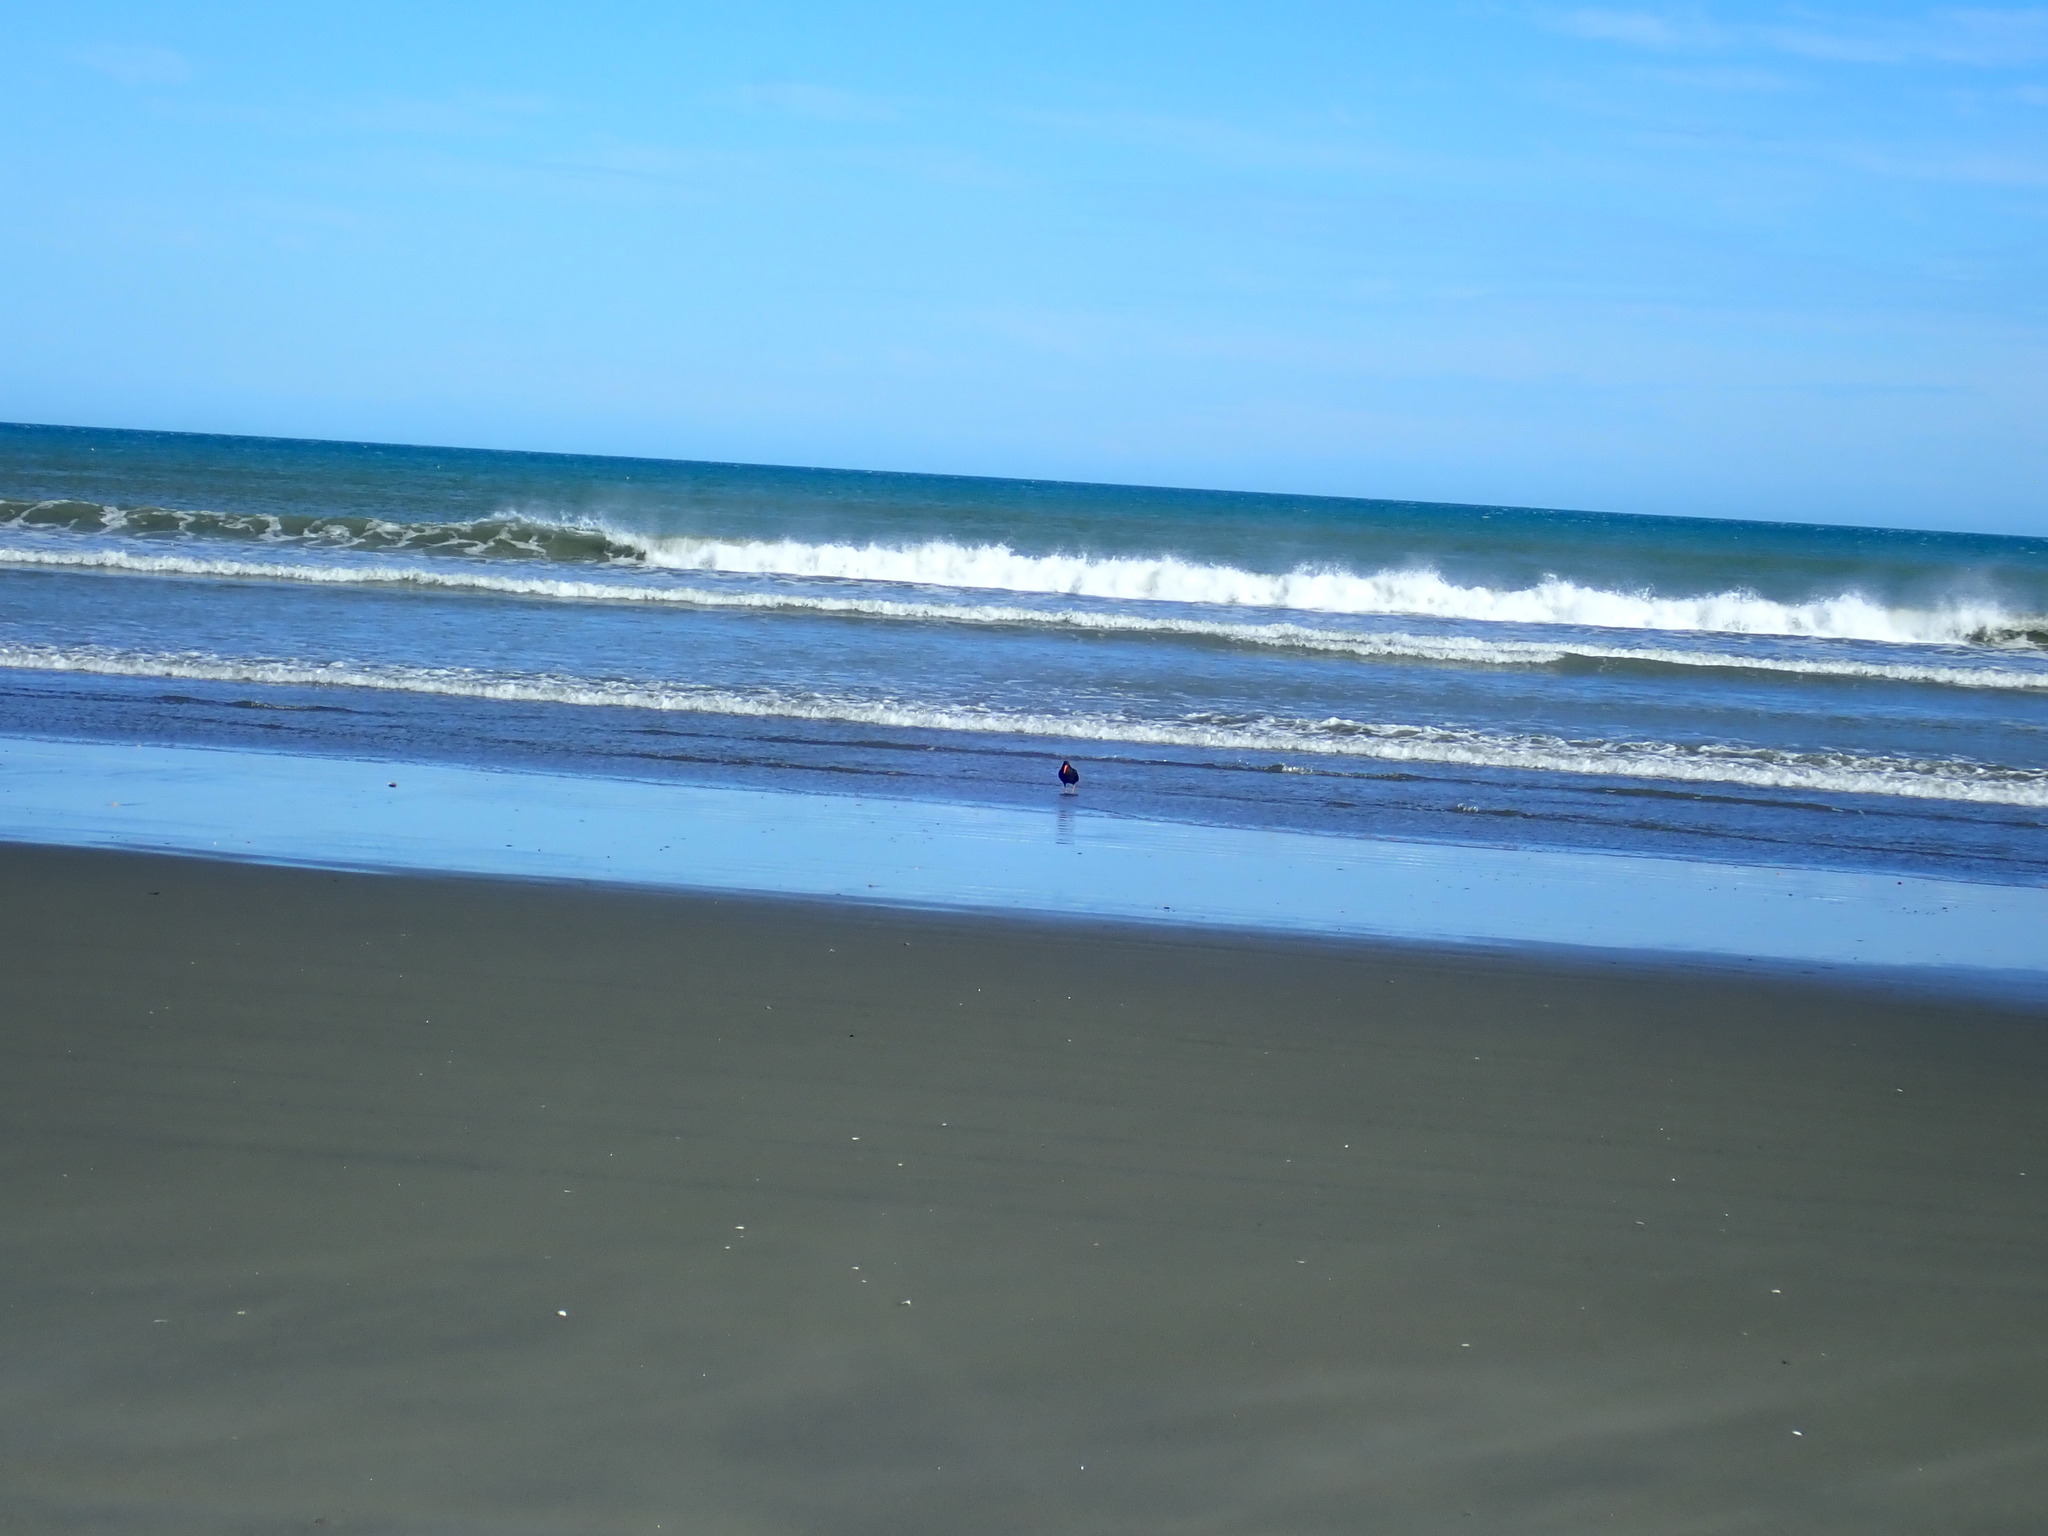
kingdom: Animalia
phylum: Chordata
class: Aves
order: Charadriiformes
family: Haematopodidae
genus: Haematopus
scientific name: Haematopus unicolor
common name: Variable oystercatcher
